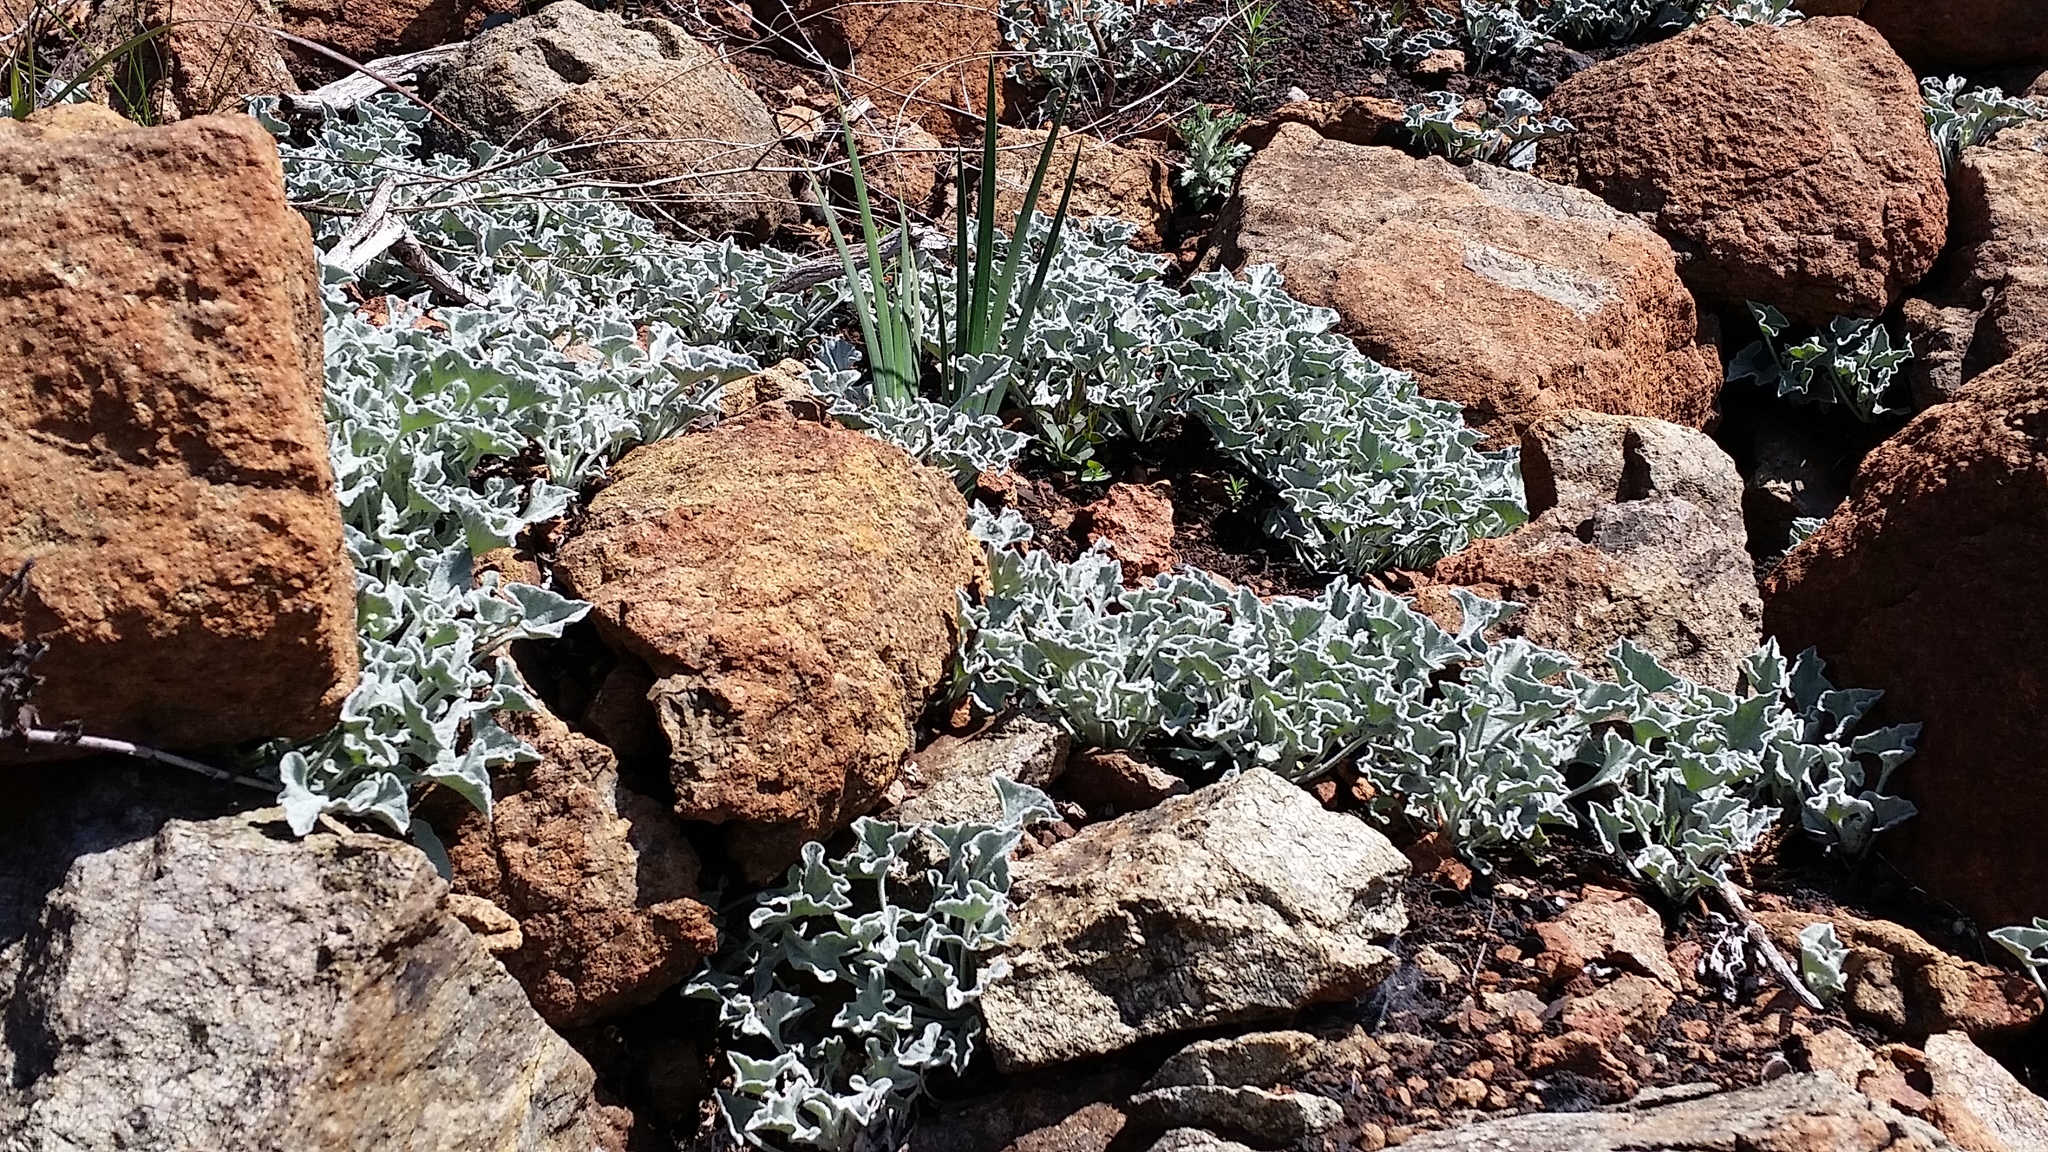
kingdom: Plantae
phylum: Tracheophyta
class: Magnoliopsida
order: Solanales
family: Convolvulaceae
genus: Calystegia
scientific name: Calystegia collina
